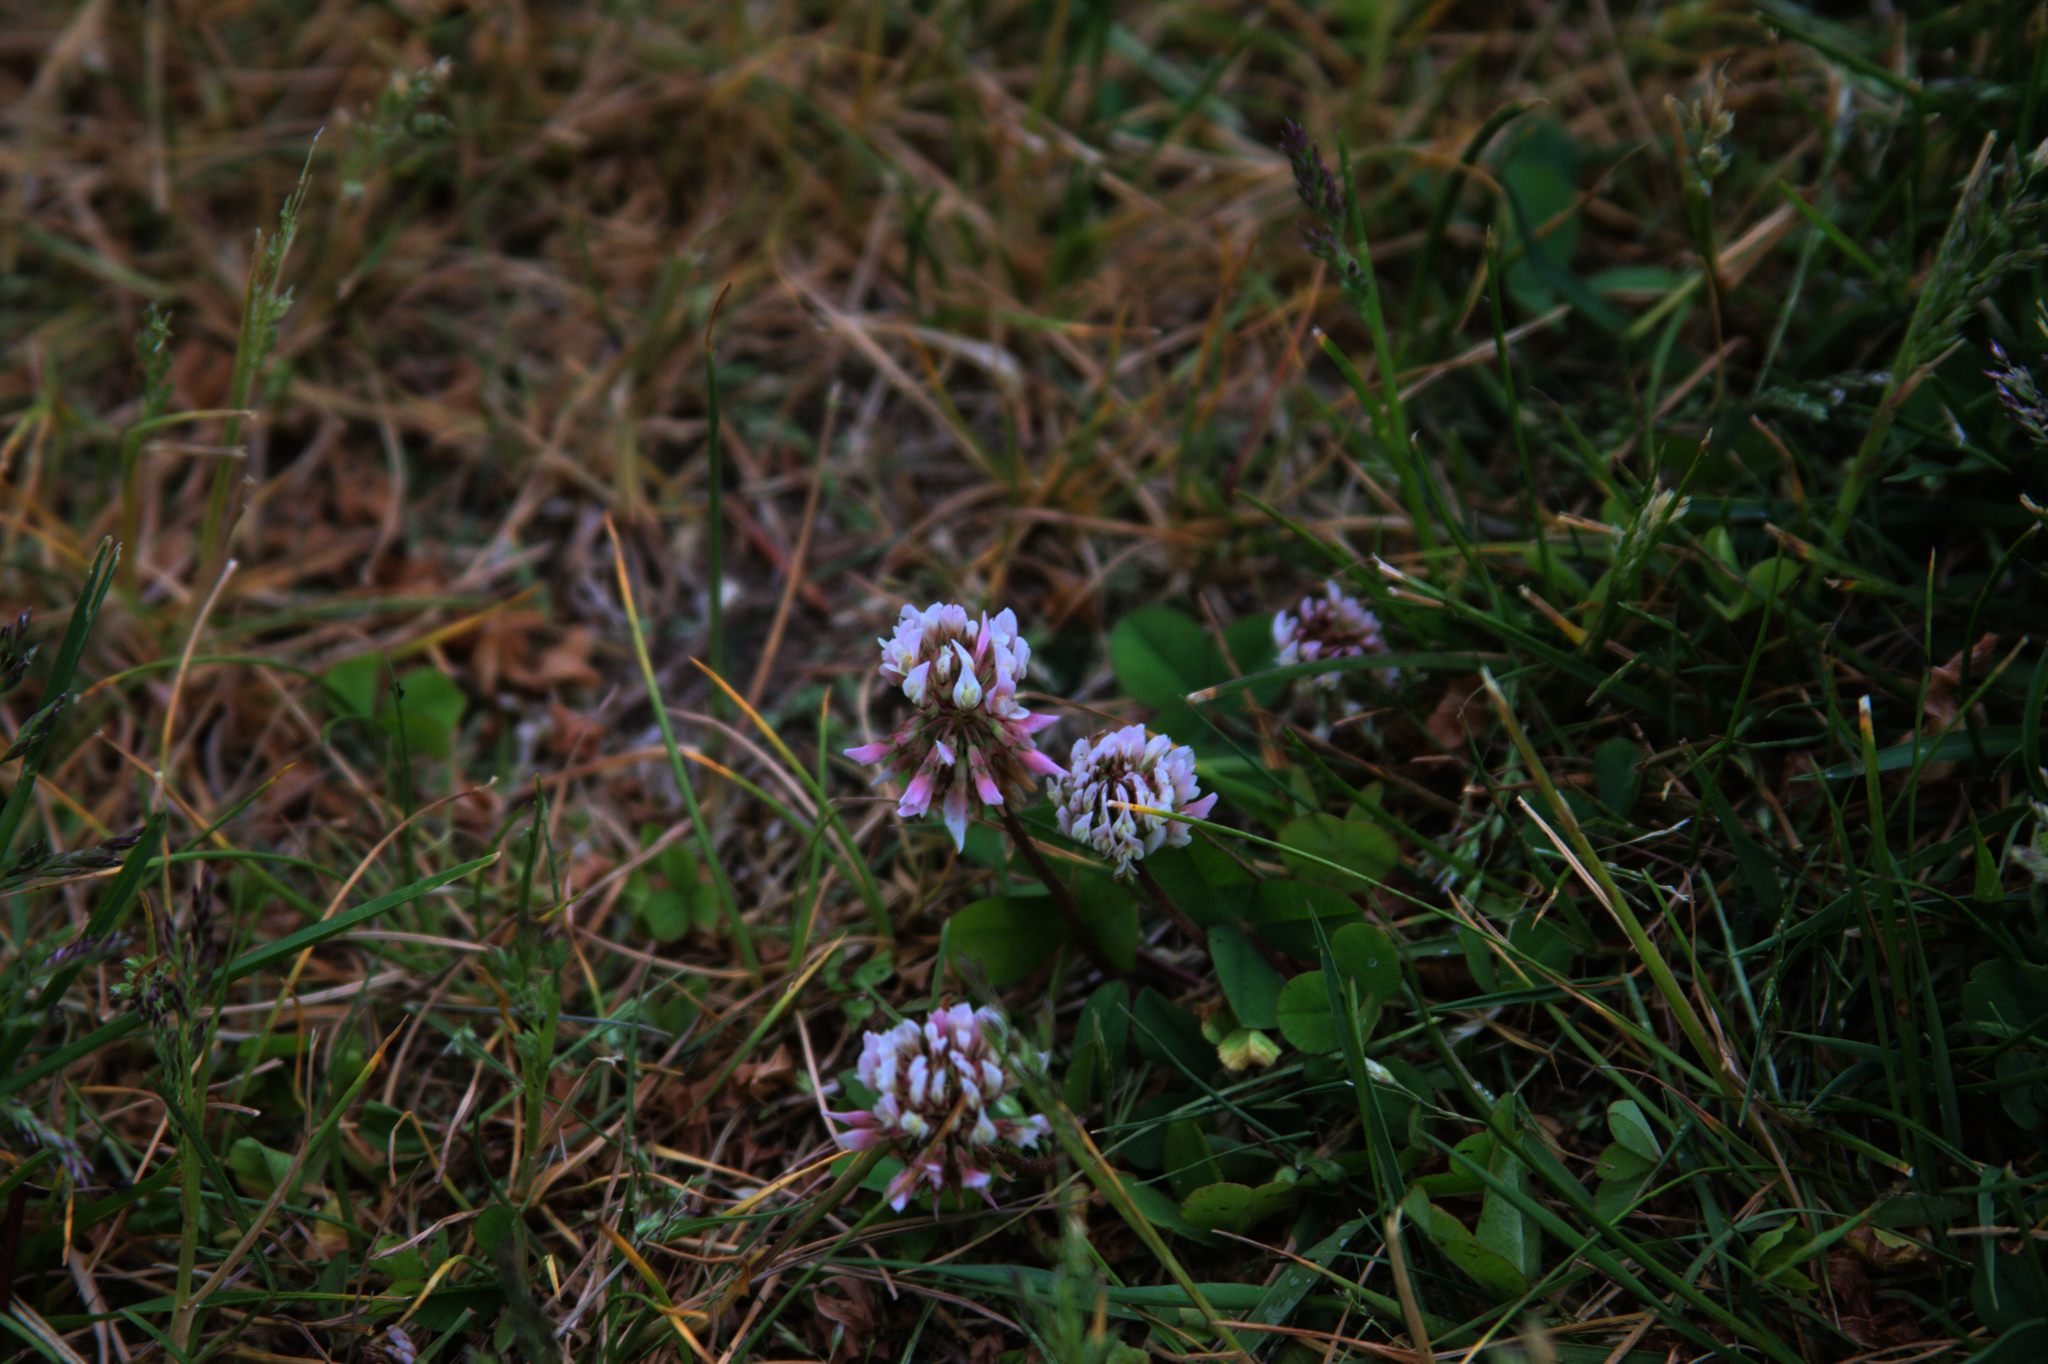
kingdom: Plantae
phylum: Tracheophyta
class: Magnoliopsida
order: Fabales
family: Fabaceae
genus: Trifolium
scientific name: Trifolium repens
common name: White clover
